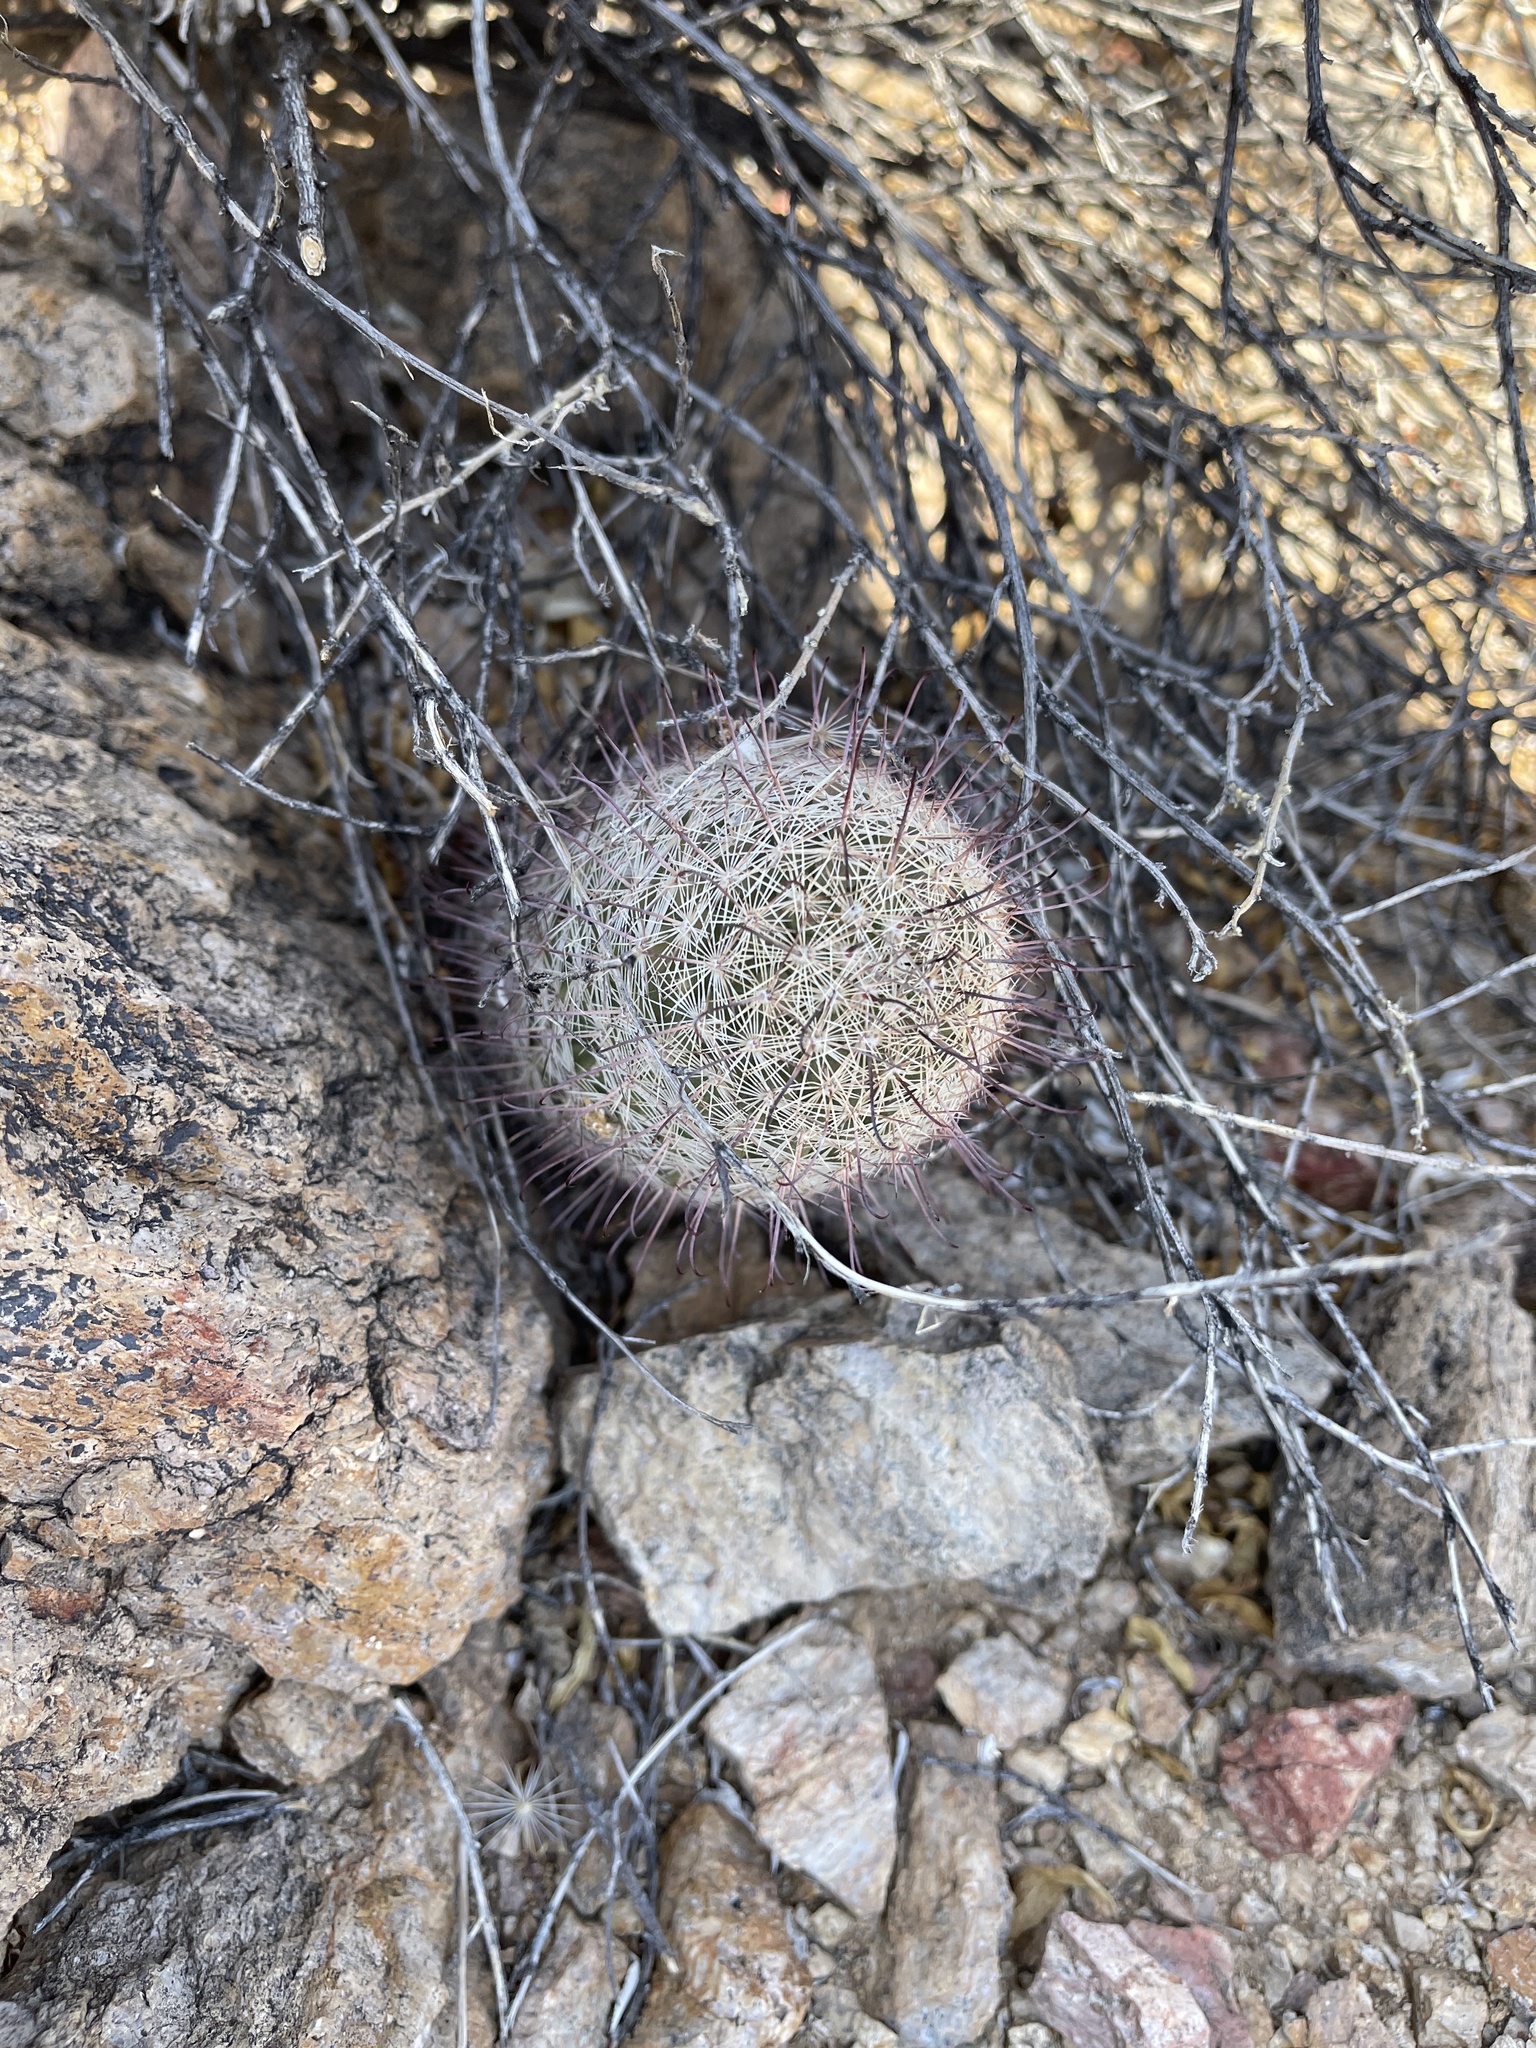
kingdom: Plantae
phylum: Tracheophyta
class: Magnoliopsida
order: Caryophyllales
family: Cactaceae
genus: Cochemiea
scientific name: Cochemiea grahamii
